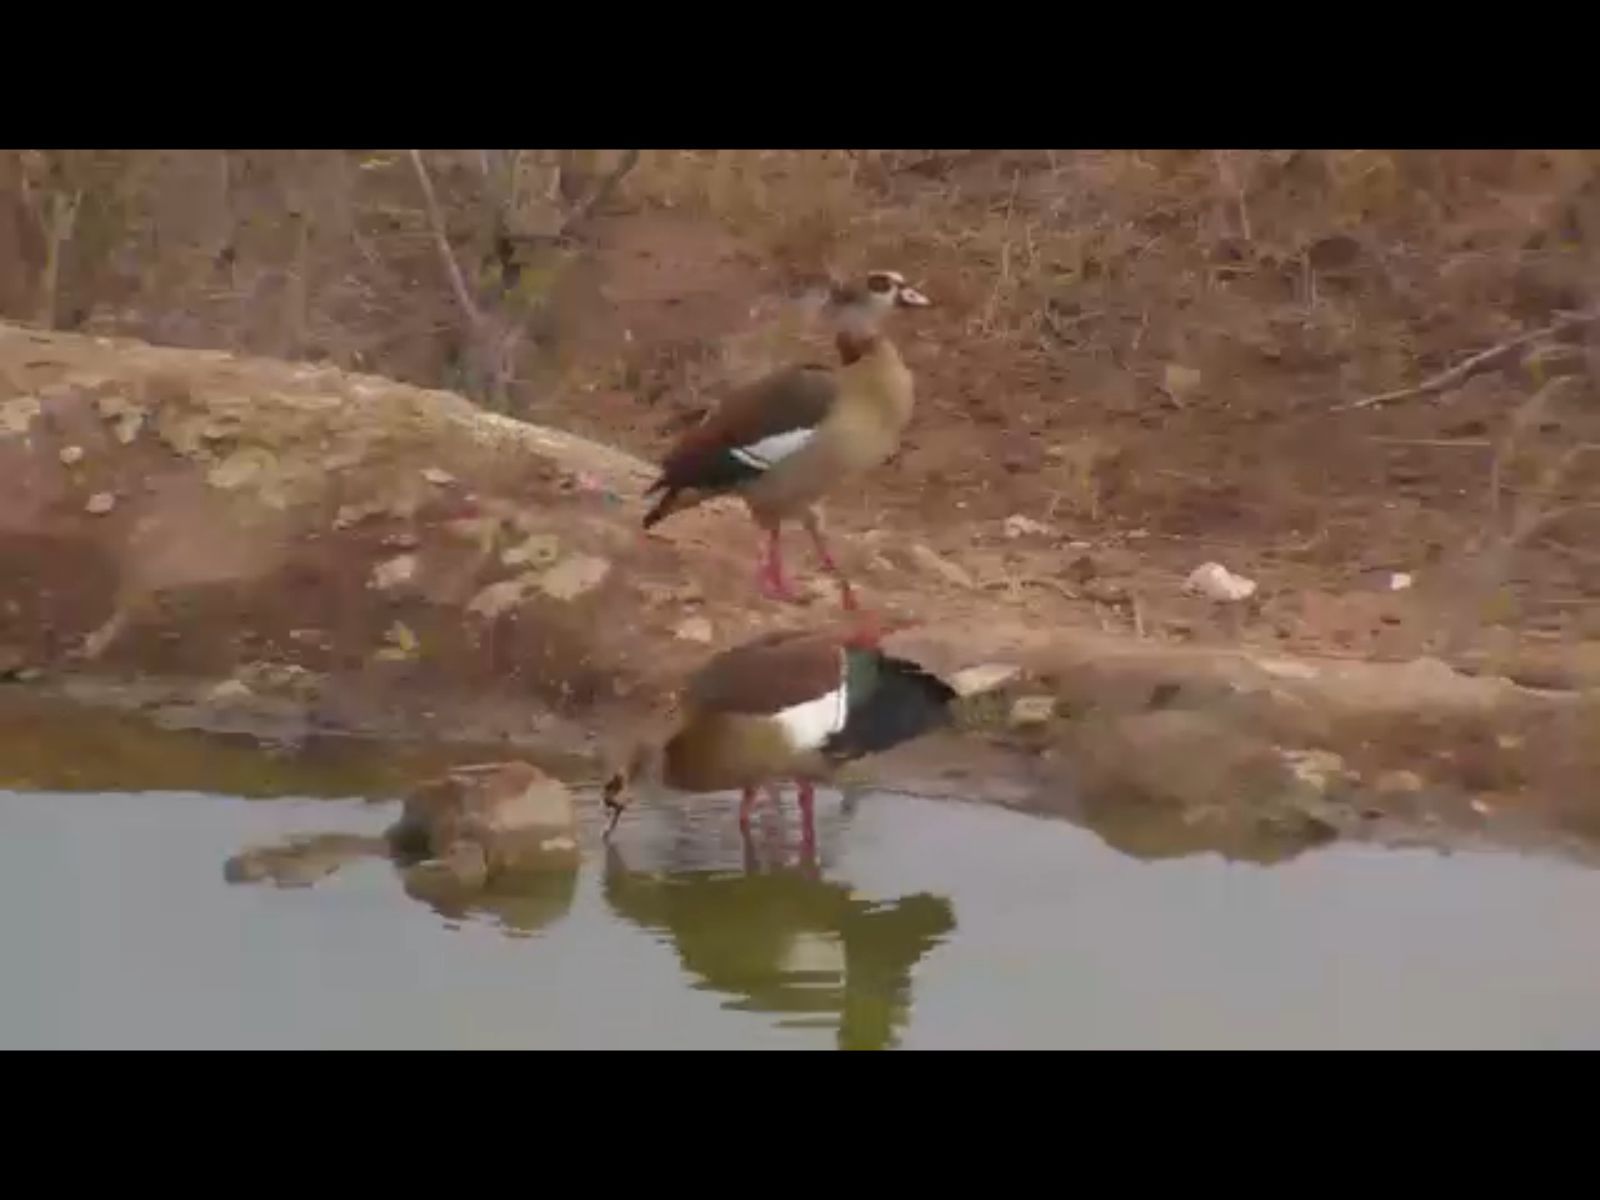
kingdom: Animalia
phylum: Chordata
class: Aves
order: Anseriformes
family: Anatidae
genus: Alopochen
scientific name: Alopochen aegyptiaca
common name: Egyptian goose
